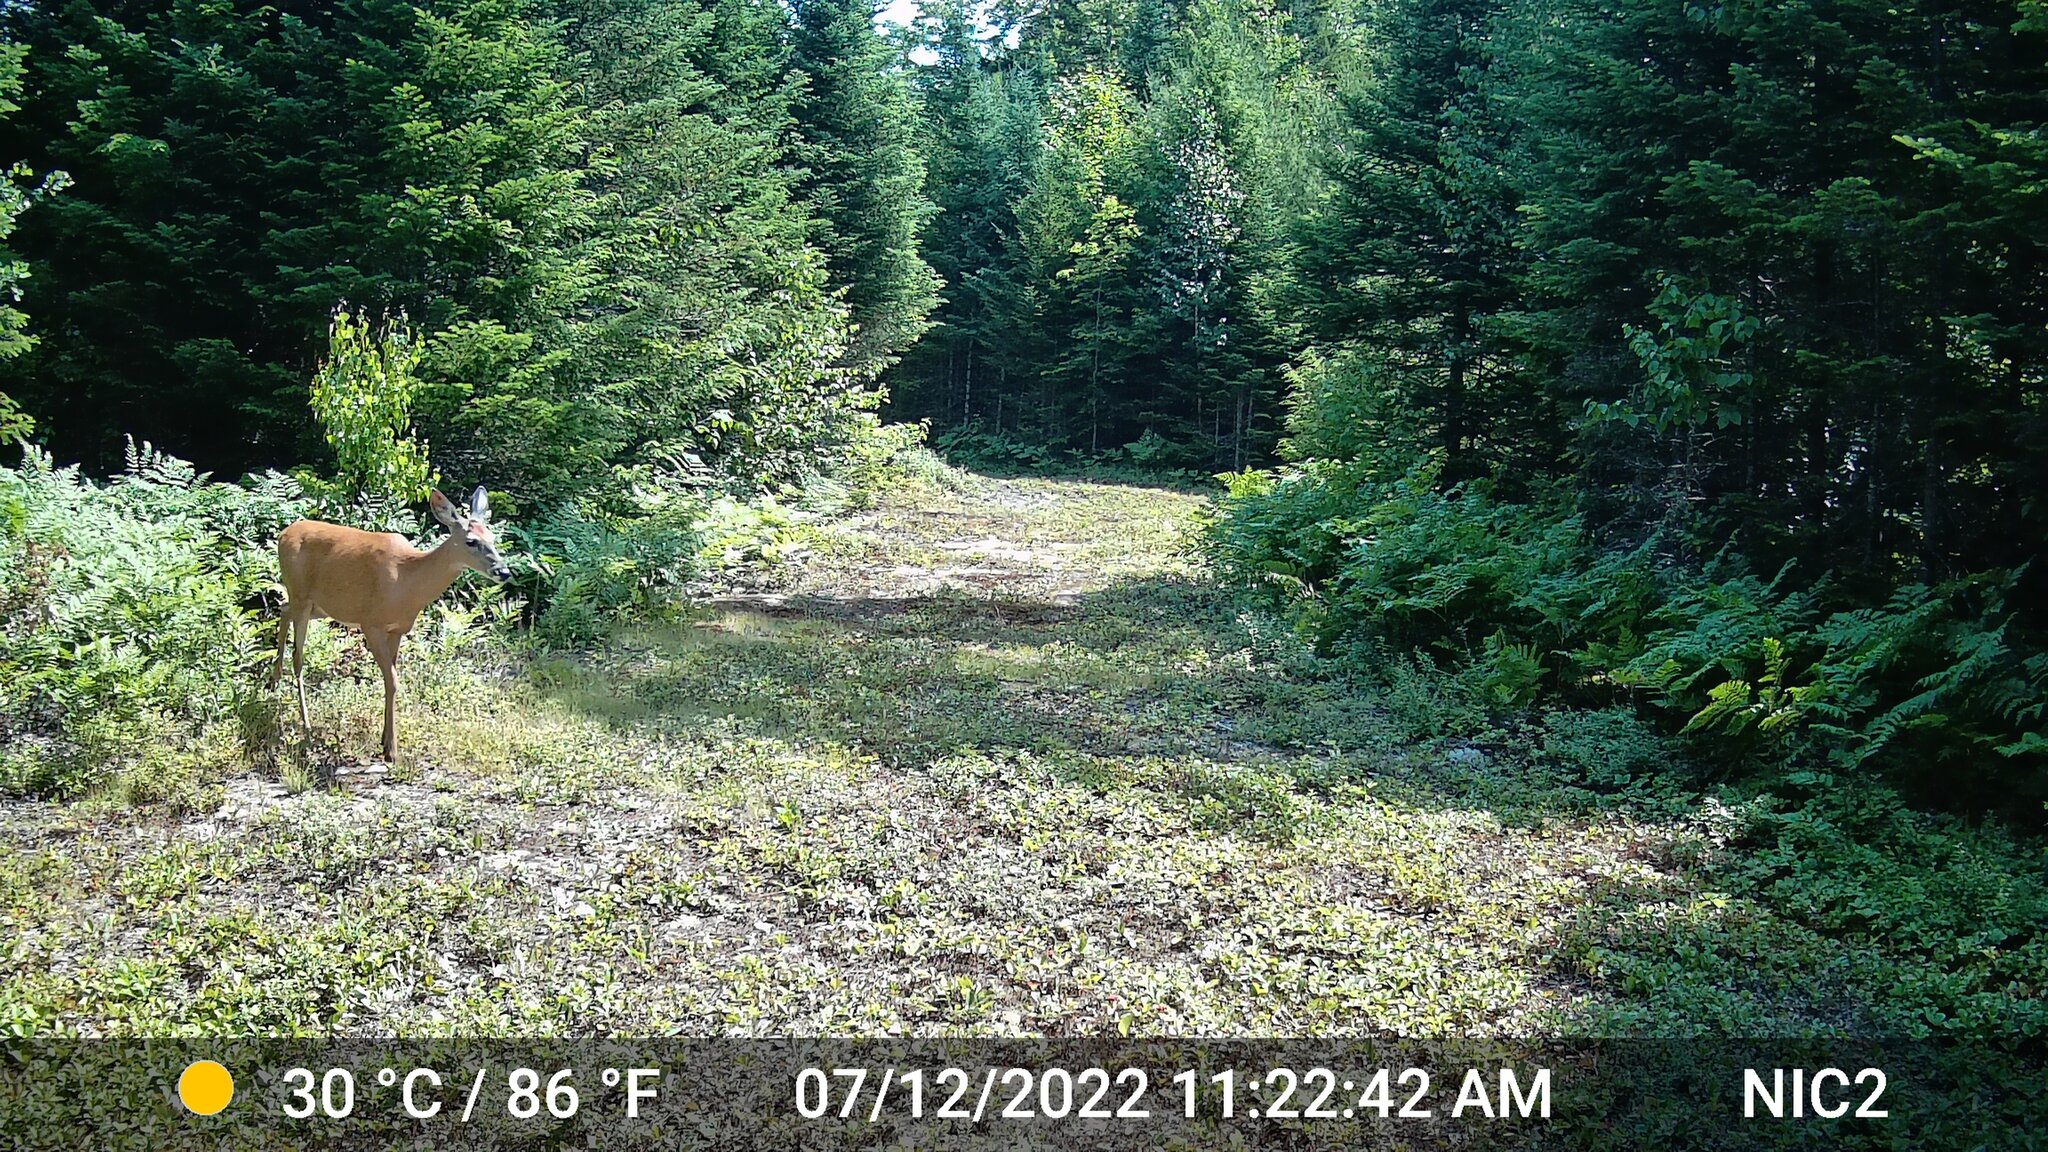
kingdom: Animalia
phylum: Chordata
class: Mammalia
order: Artiodactyla
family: Cervidae
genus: Odocoileus
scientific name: Odocoileus virginianus
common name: White-tailed deer
